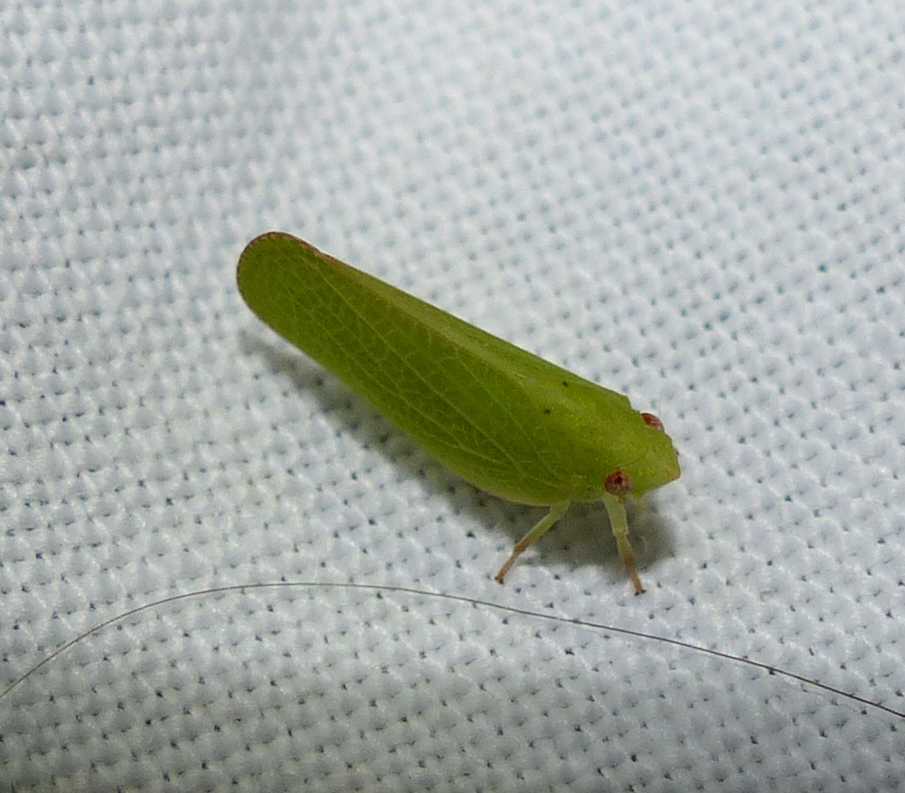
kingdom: Animalia
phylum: Arthropoda
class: Insecta
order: Hemiptera
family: Acanaloniidae
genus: Acanalonia
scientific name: Acanalonia conica
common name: Green cone-headed planthopper
